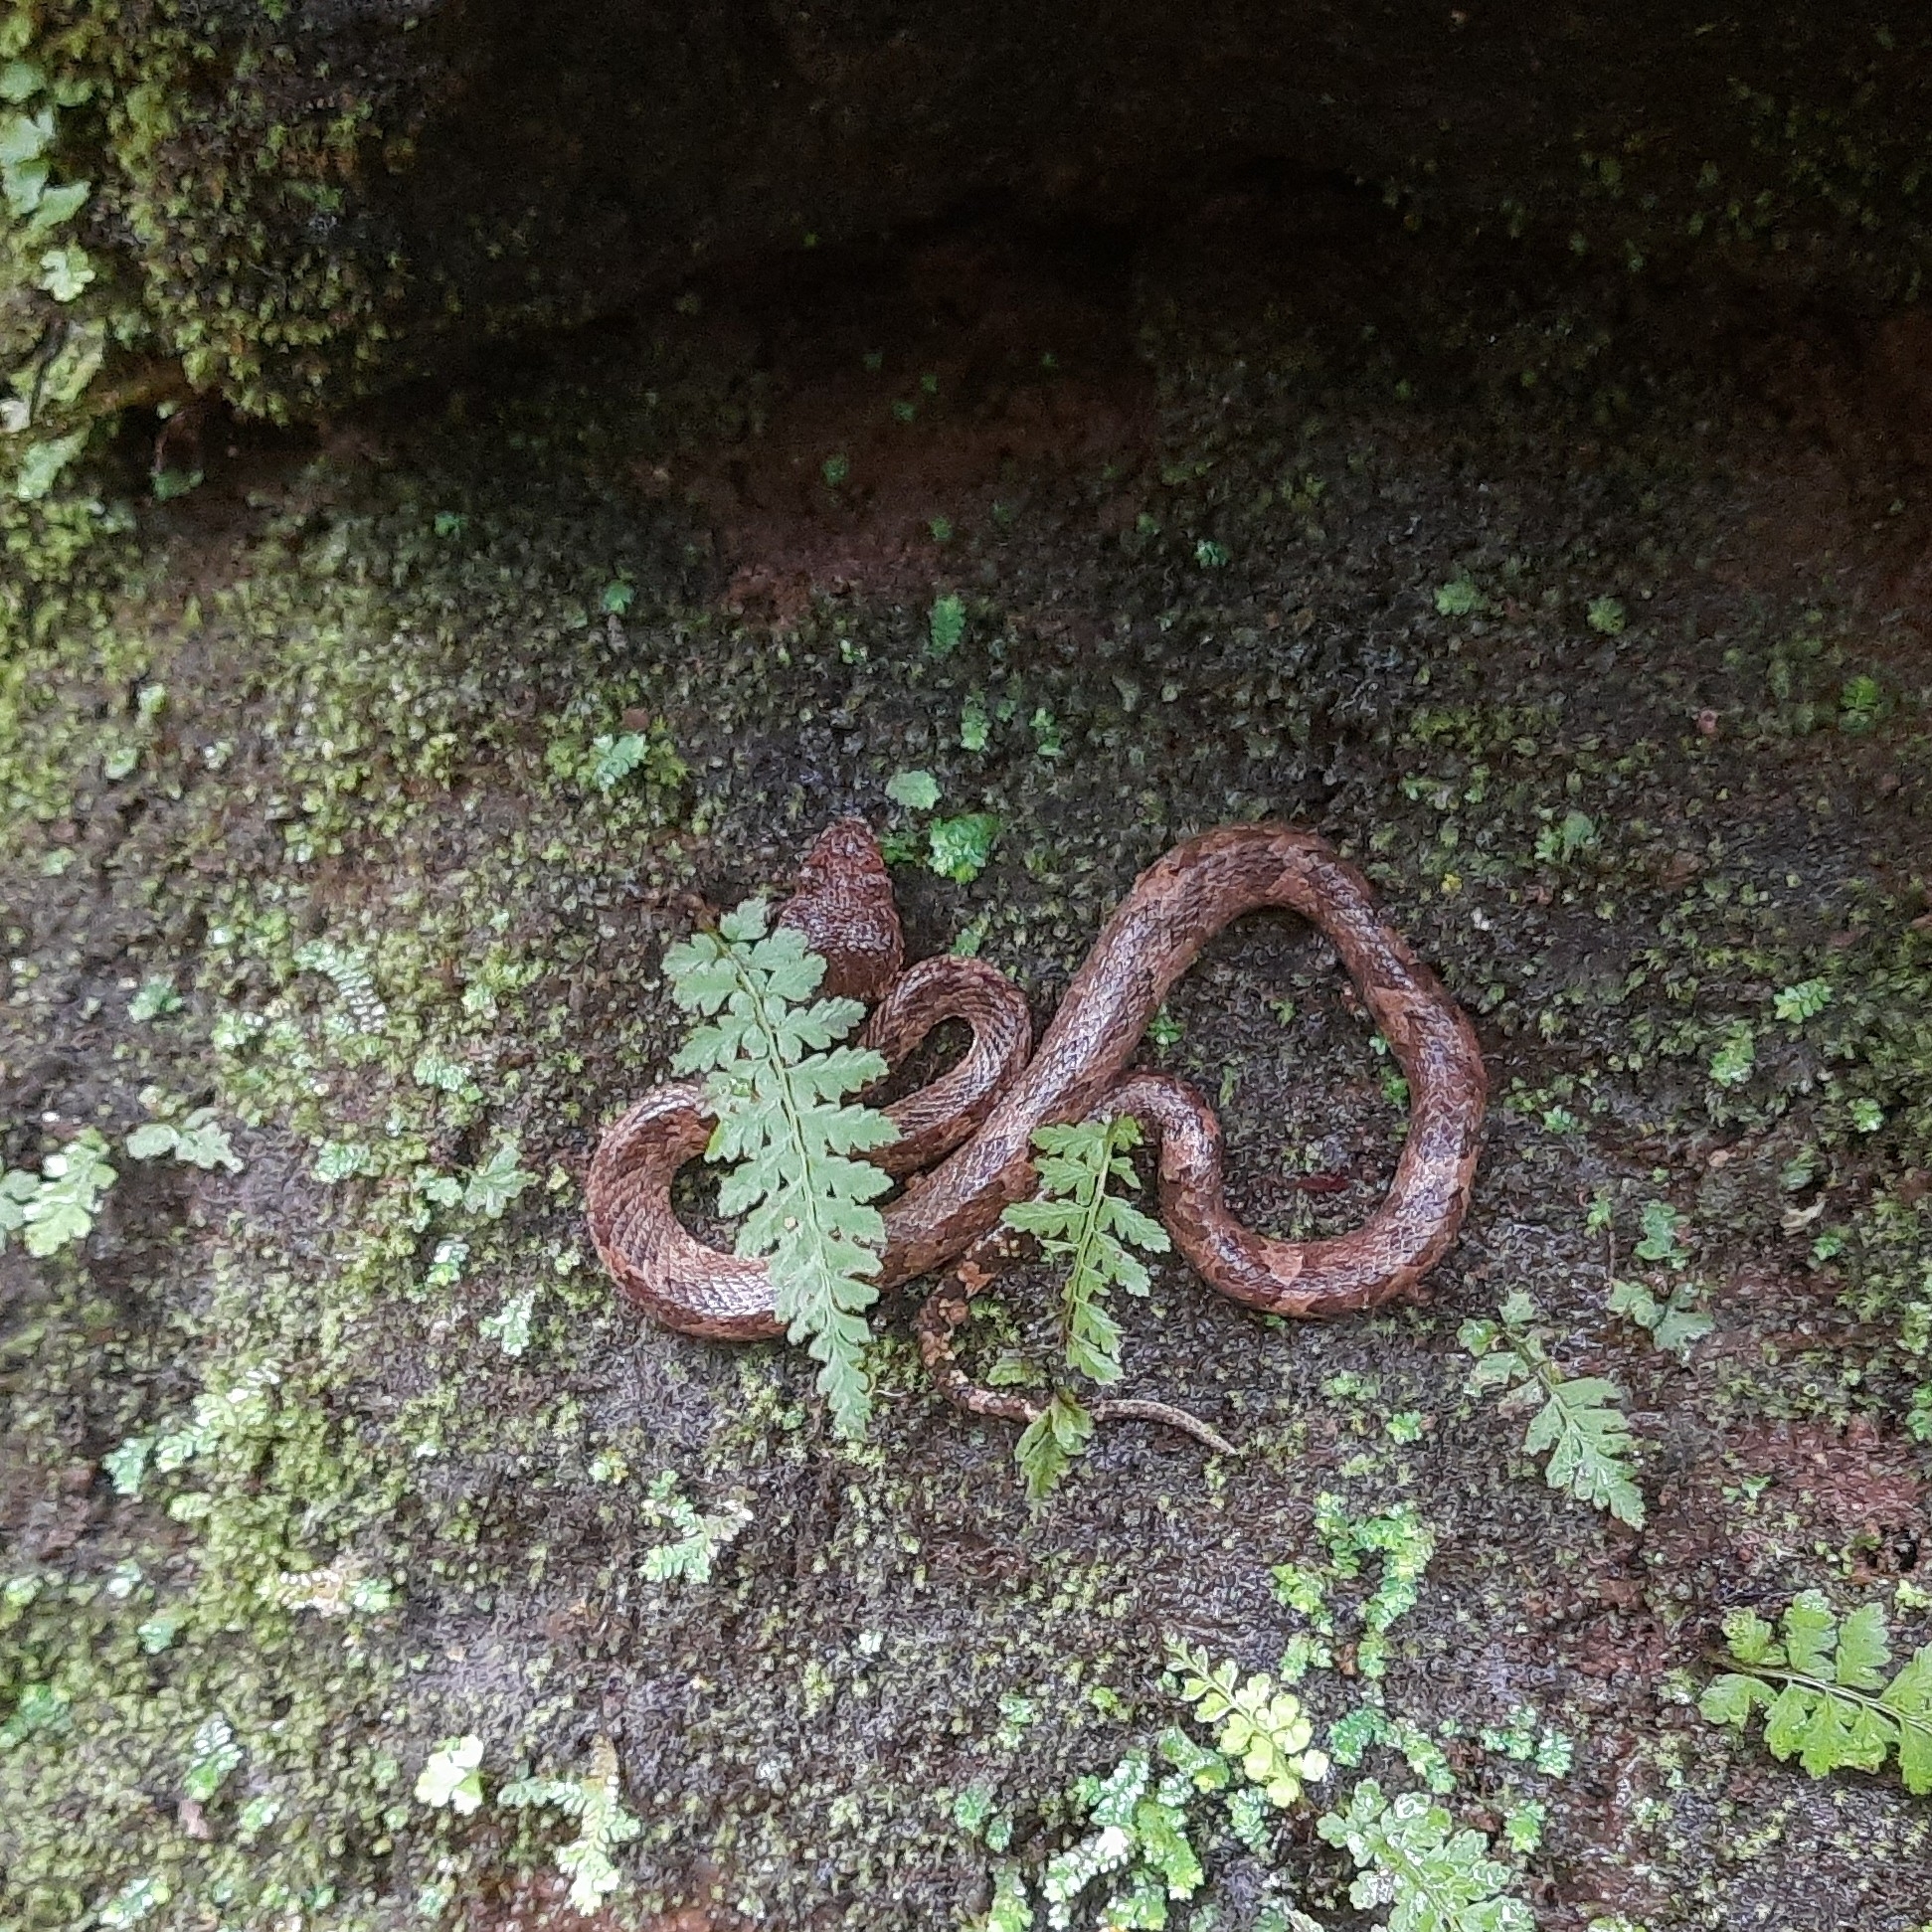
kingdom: Animalia
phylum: Chordata
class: Squamata
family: Viperidae
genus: Craspedocephalus
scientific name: Craspedocephalus malabaricus
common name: Malabarian pit viper
